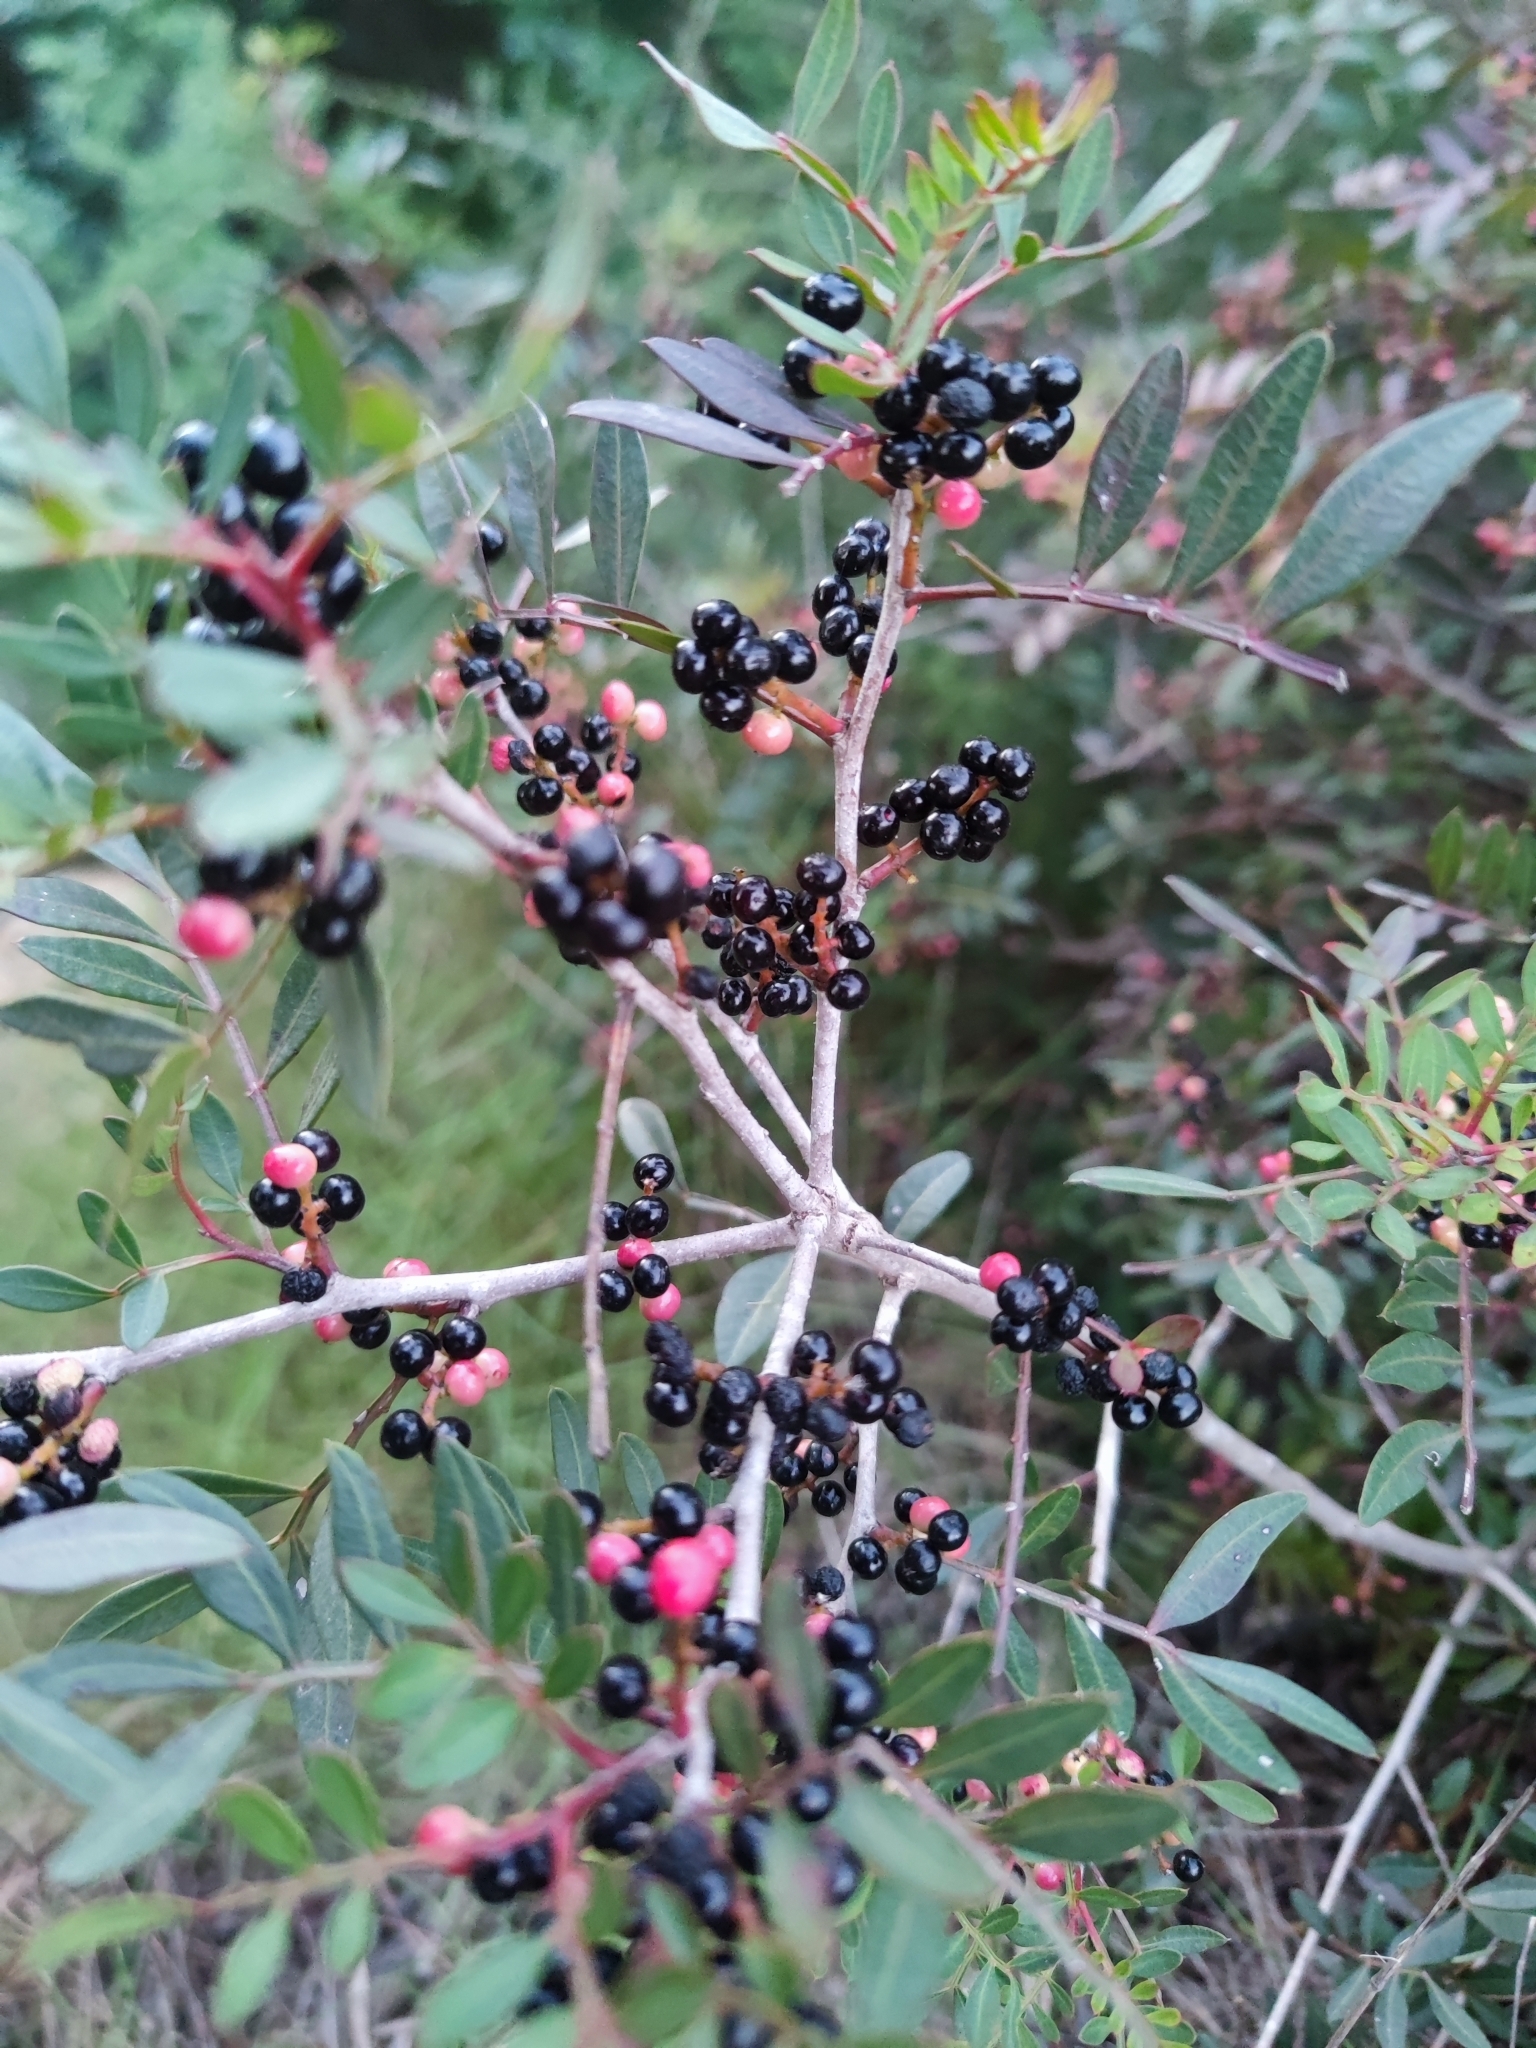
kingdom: Plantae
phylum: Tracheophyta
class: Magnoliopsida
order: Sapindales
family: Anacardiaceae
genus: Pistacia
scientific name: Pistacia lentiscus
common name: Lentisk
